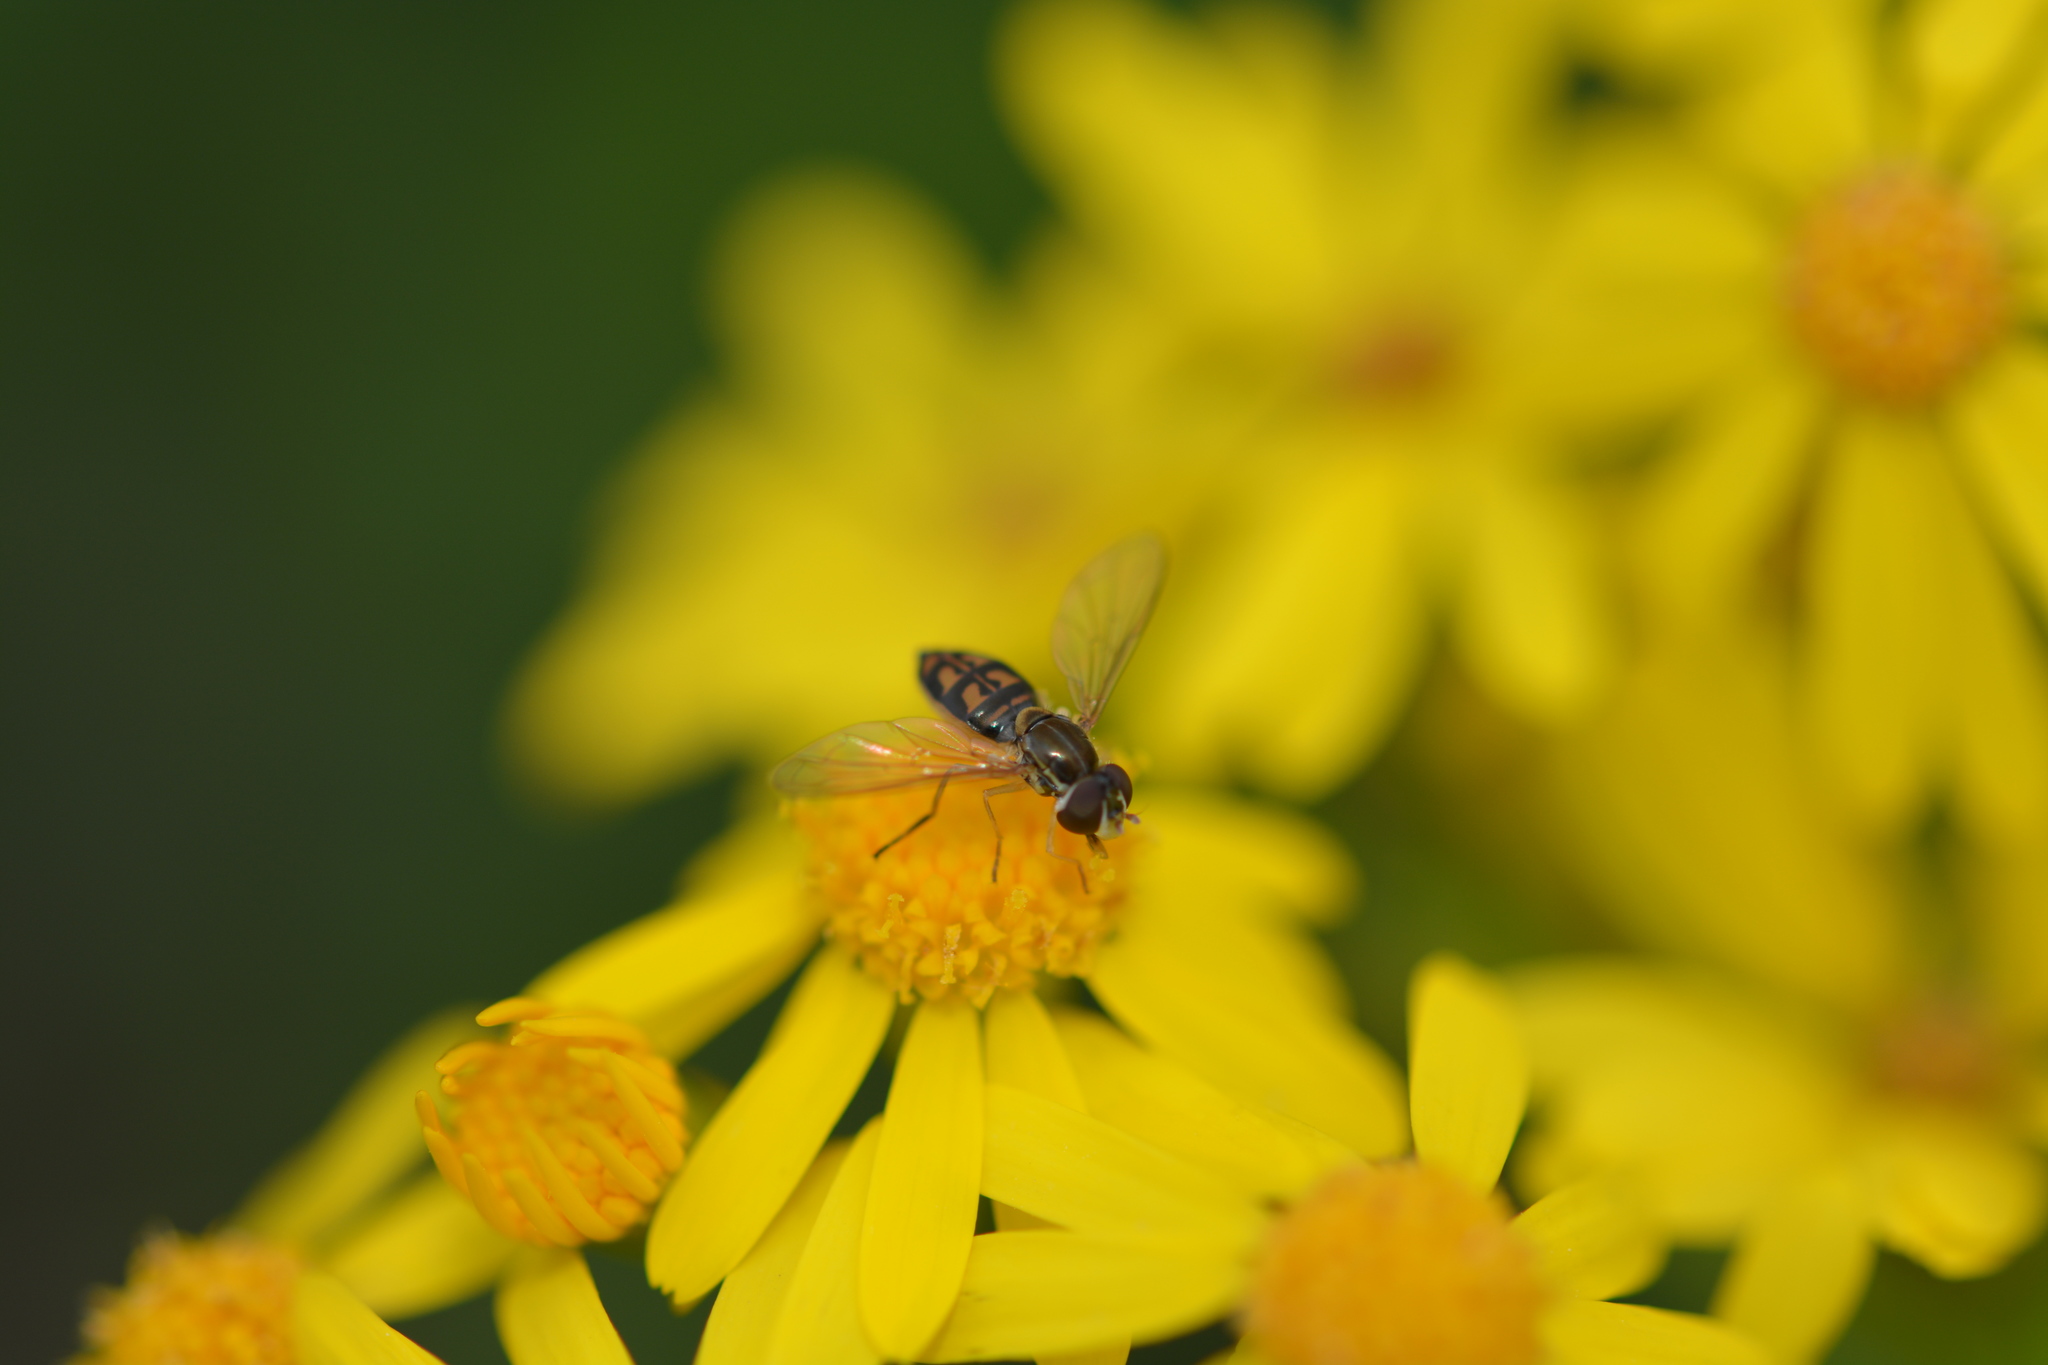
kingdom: Animalia
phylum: Arthropoda
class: Insecta
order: Diptera
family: Syrphidae
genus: Toxomerus
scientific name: Toxomerus marginatus
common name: Syrphid fly
